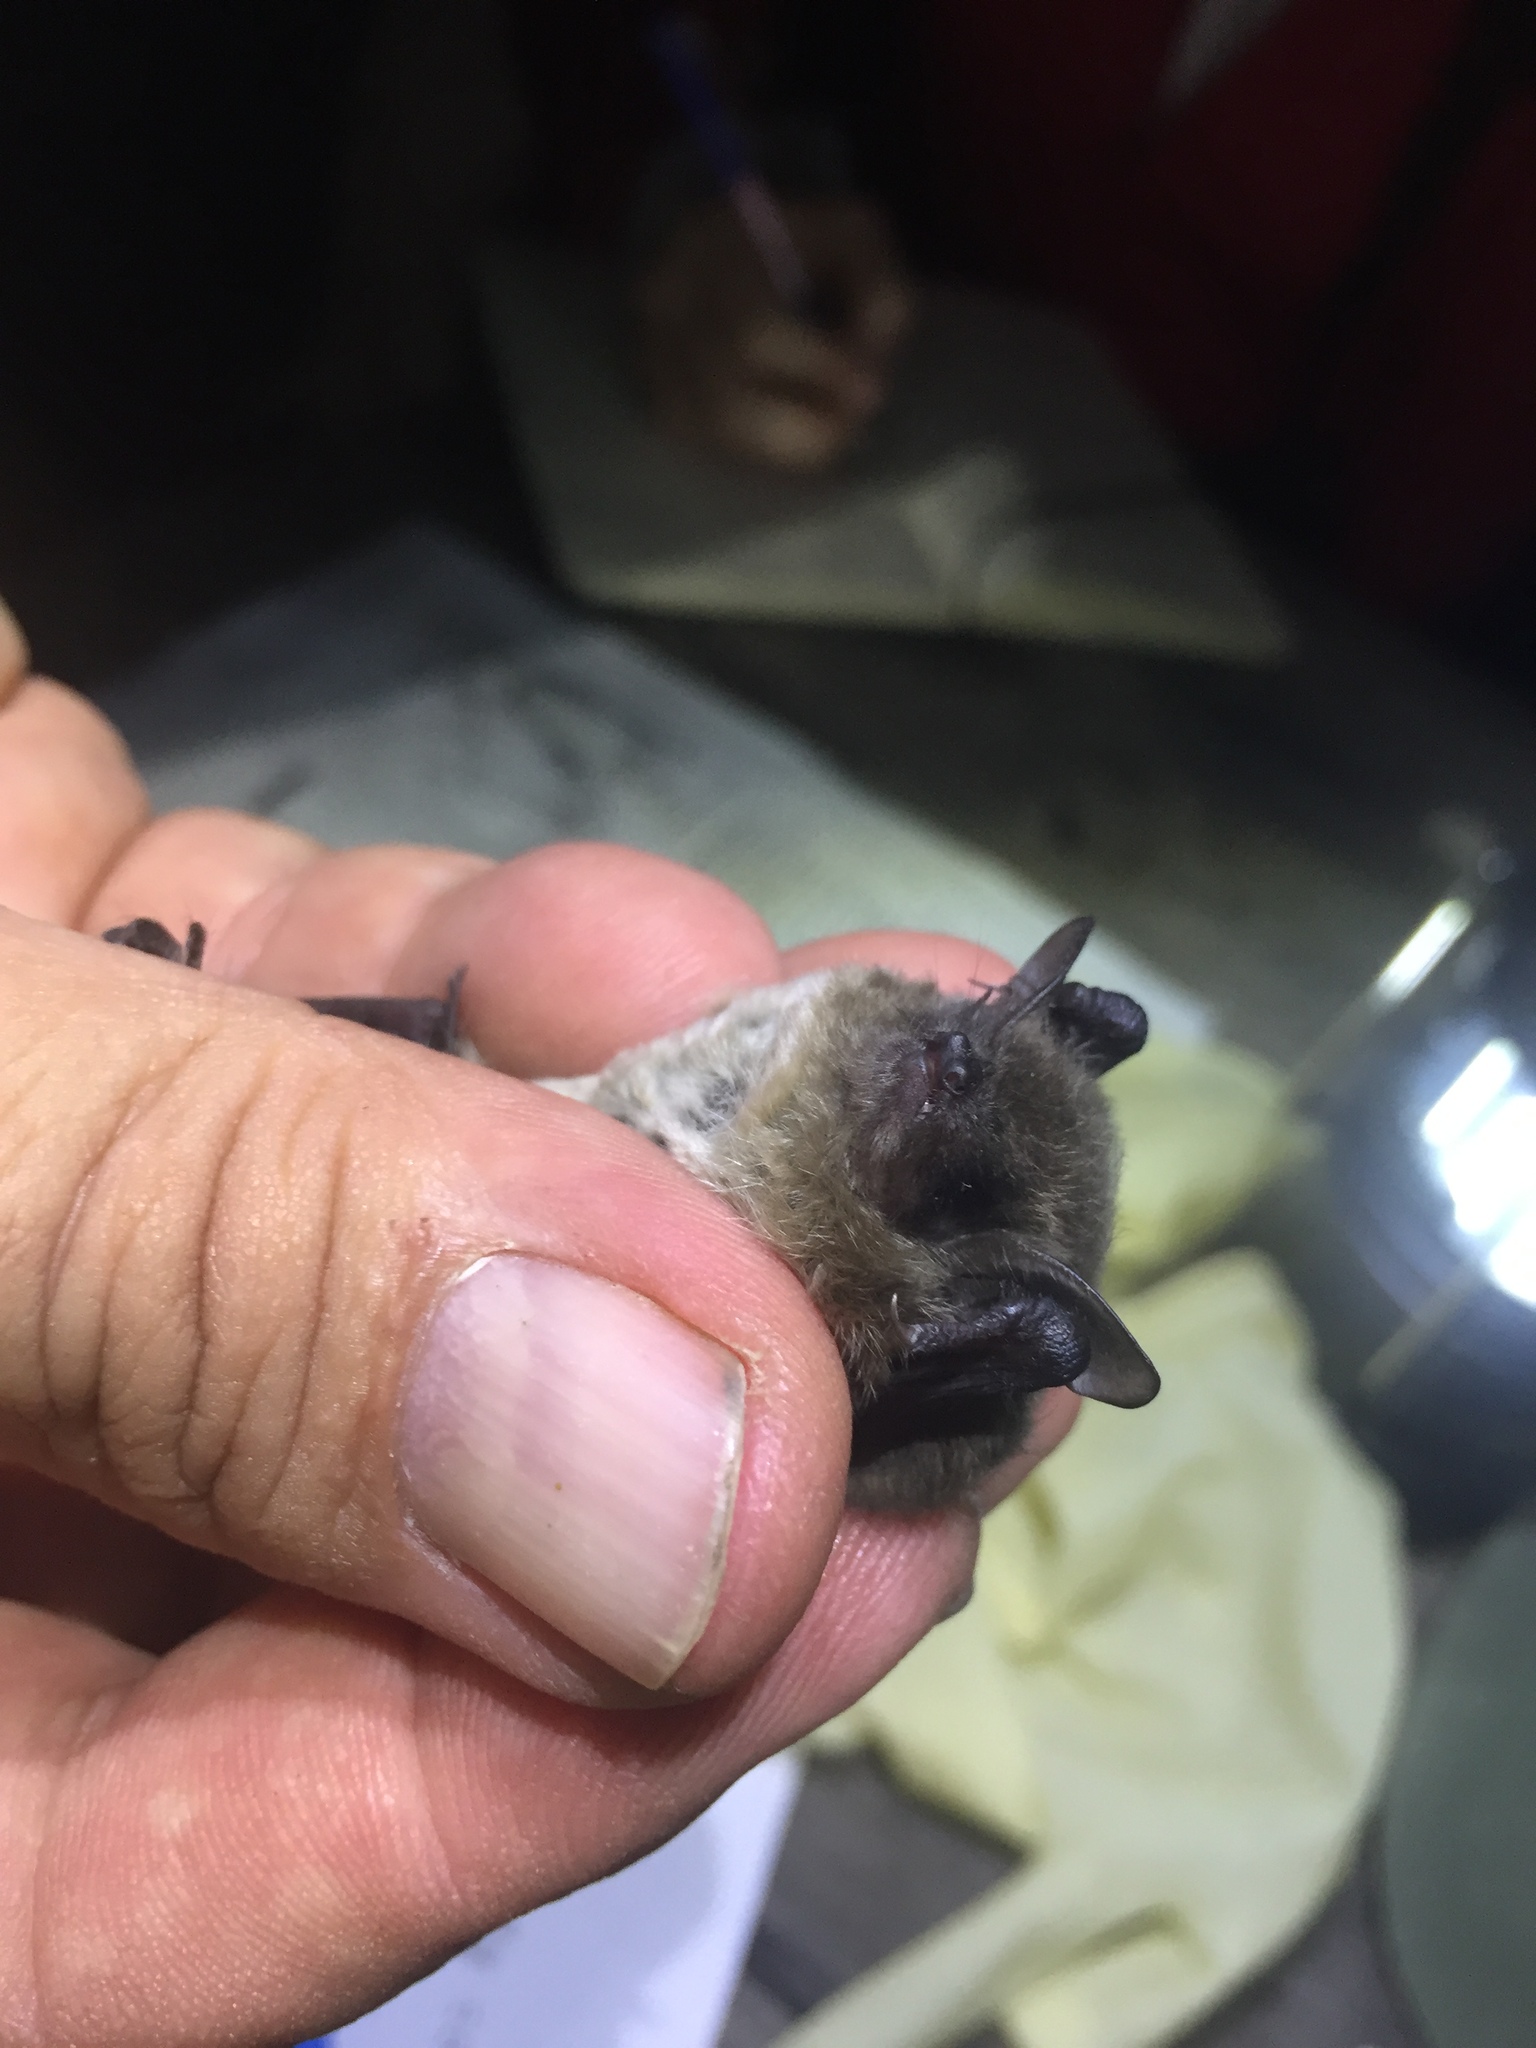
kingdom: Animalia
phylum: Chordata
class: Mammalia
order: Chiroptera
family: Vespertilionidae
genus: Myotis
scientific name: Myotis yumanensis
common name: Yuma myotis
